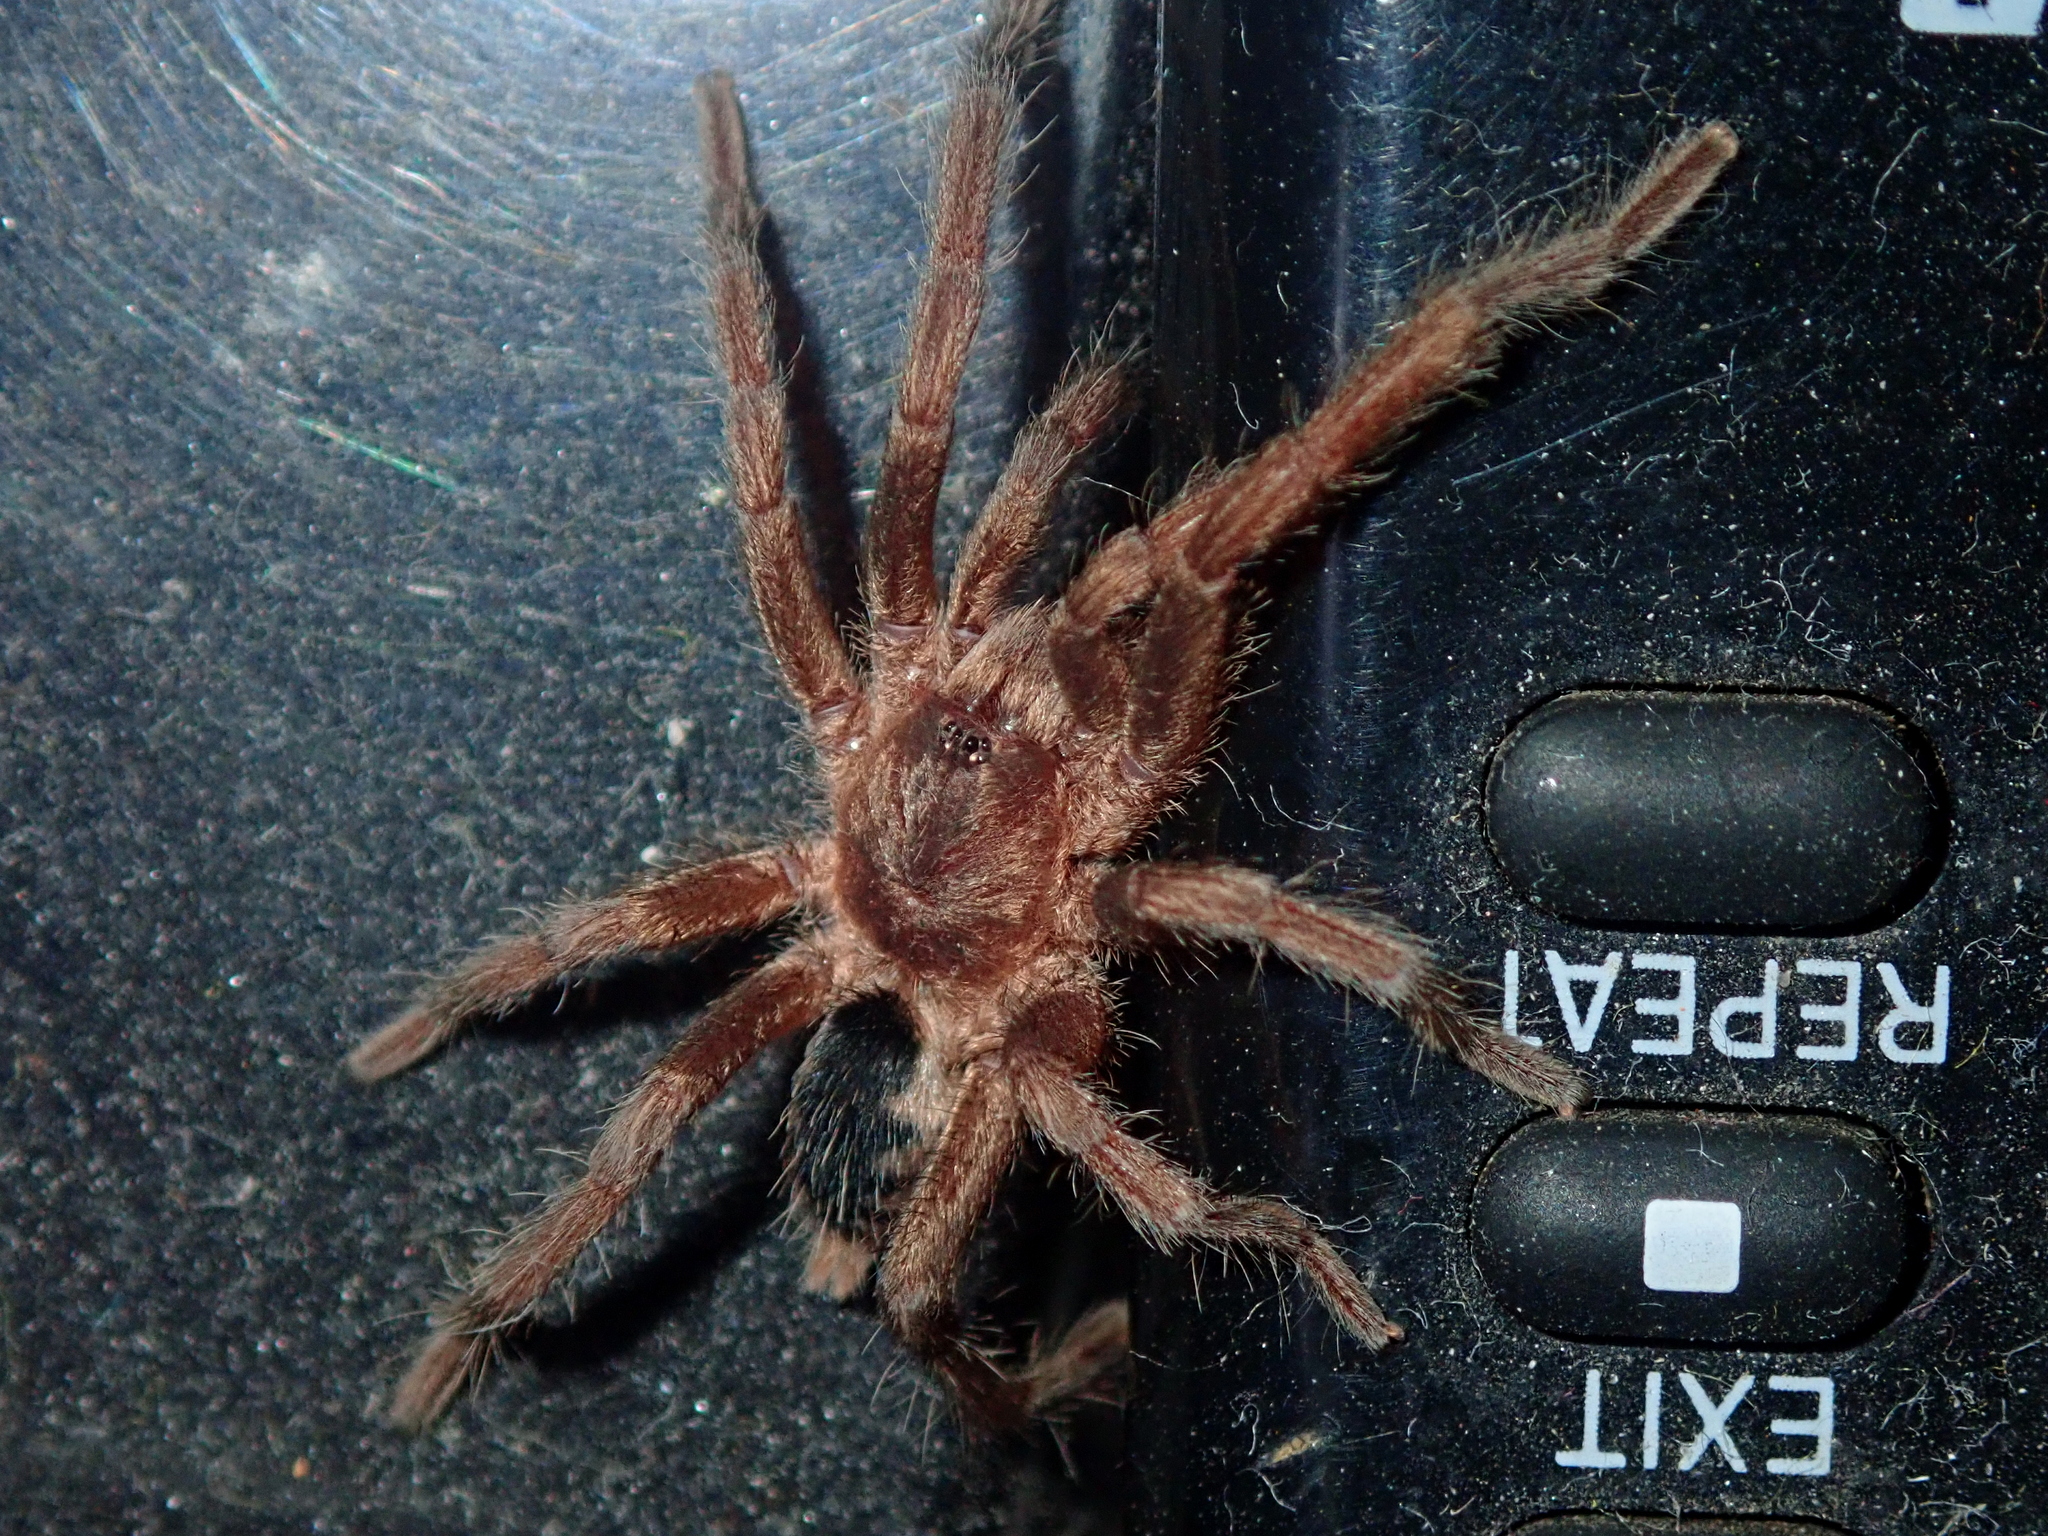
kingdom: Animalia
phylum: Arthropoda
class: Arachnida
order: Araneae
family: Theraphosidae
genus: Guyruita
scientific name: Guyruita cerrado
